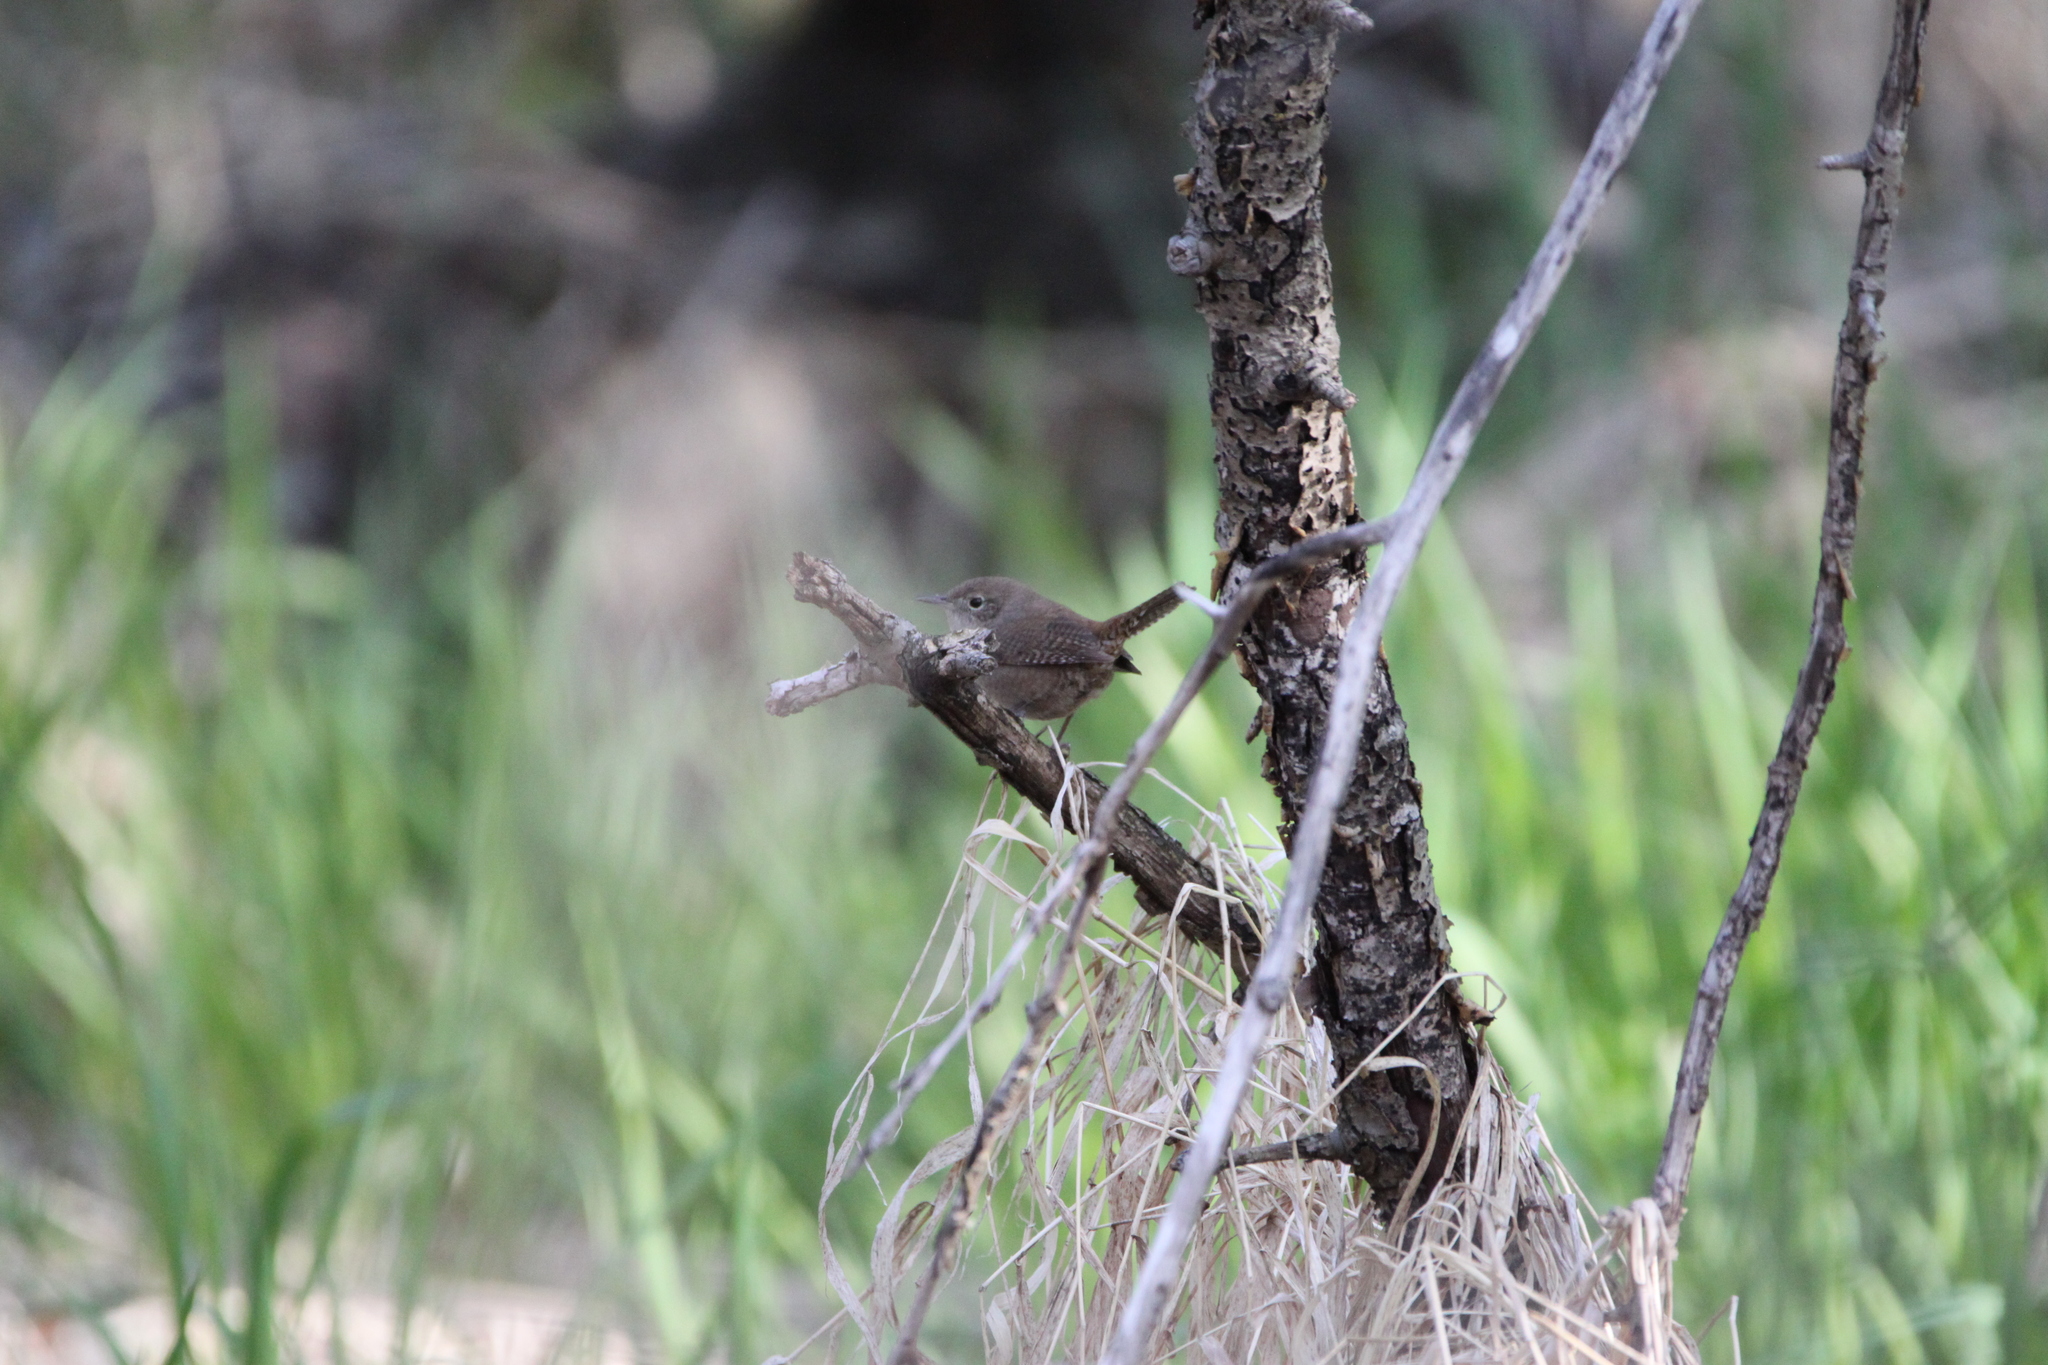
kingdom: Animalia
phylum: Chordata
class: Aves
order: Passeriformes
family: Troglodytidae
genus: Troglodytes
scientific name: Troglodytes aedon
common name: House wren
